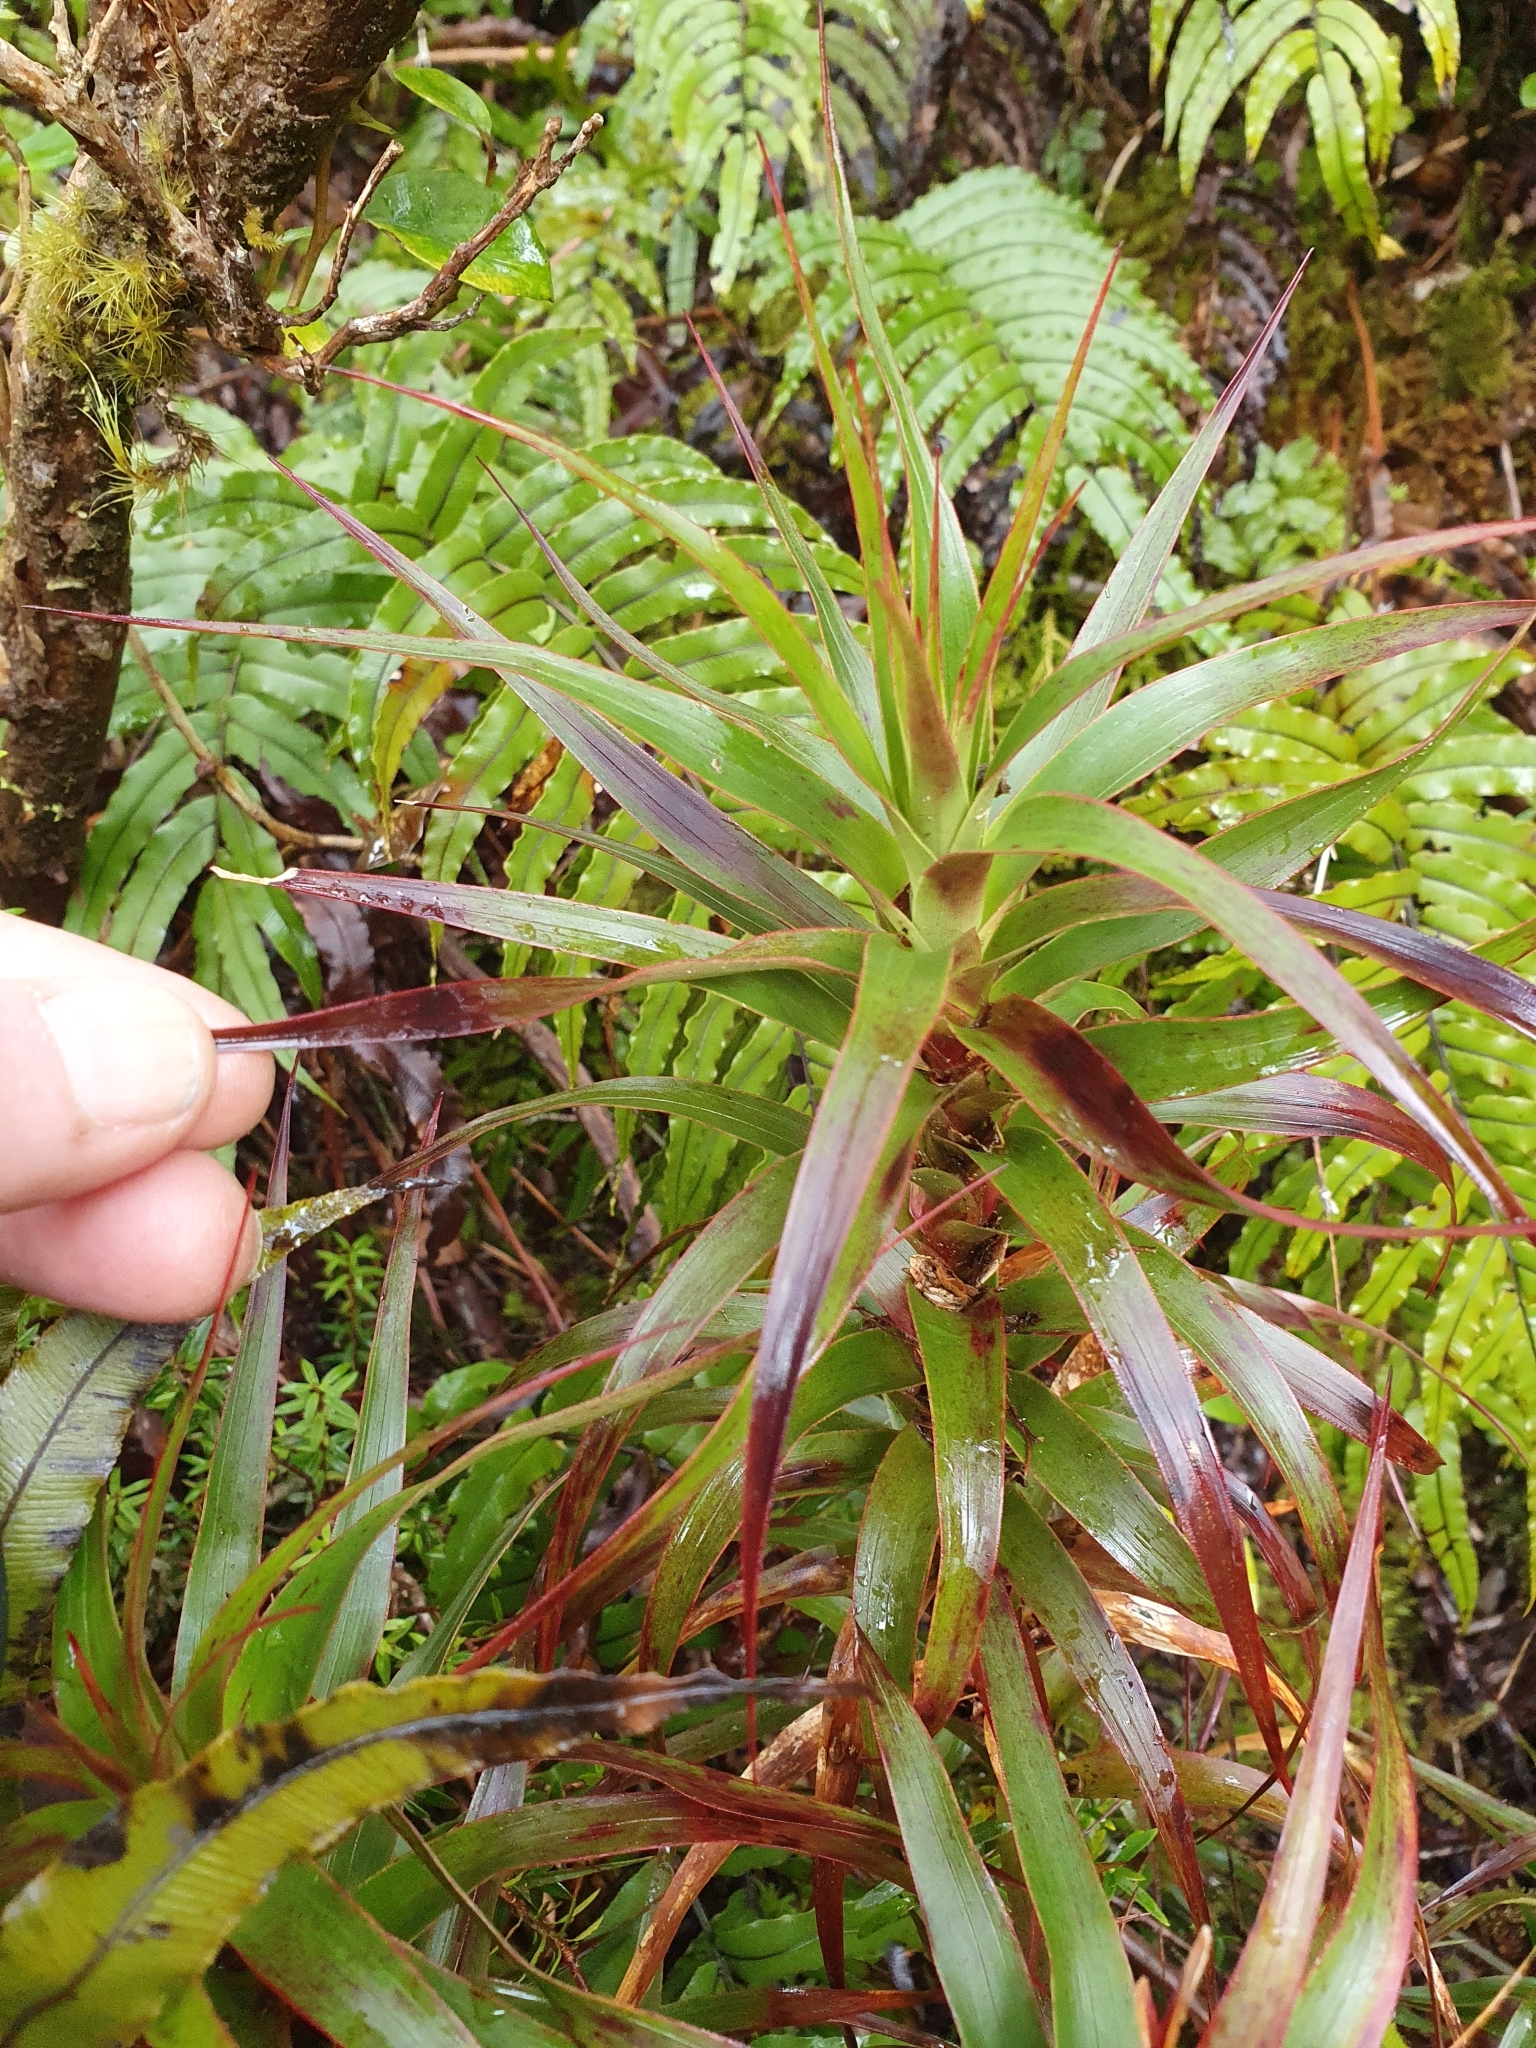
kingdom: Plantae
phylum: Tracheophyta
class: Magnoliopsida
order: Ericales
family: Ericaceae
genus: Dracophyllum
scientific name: Dracophyllum menziesii
